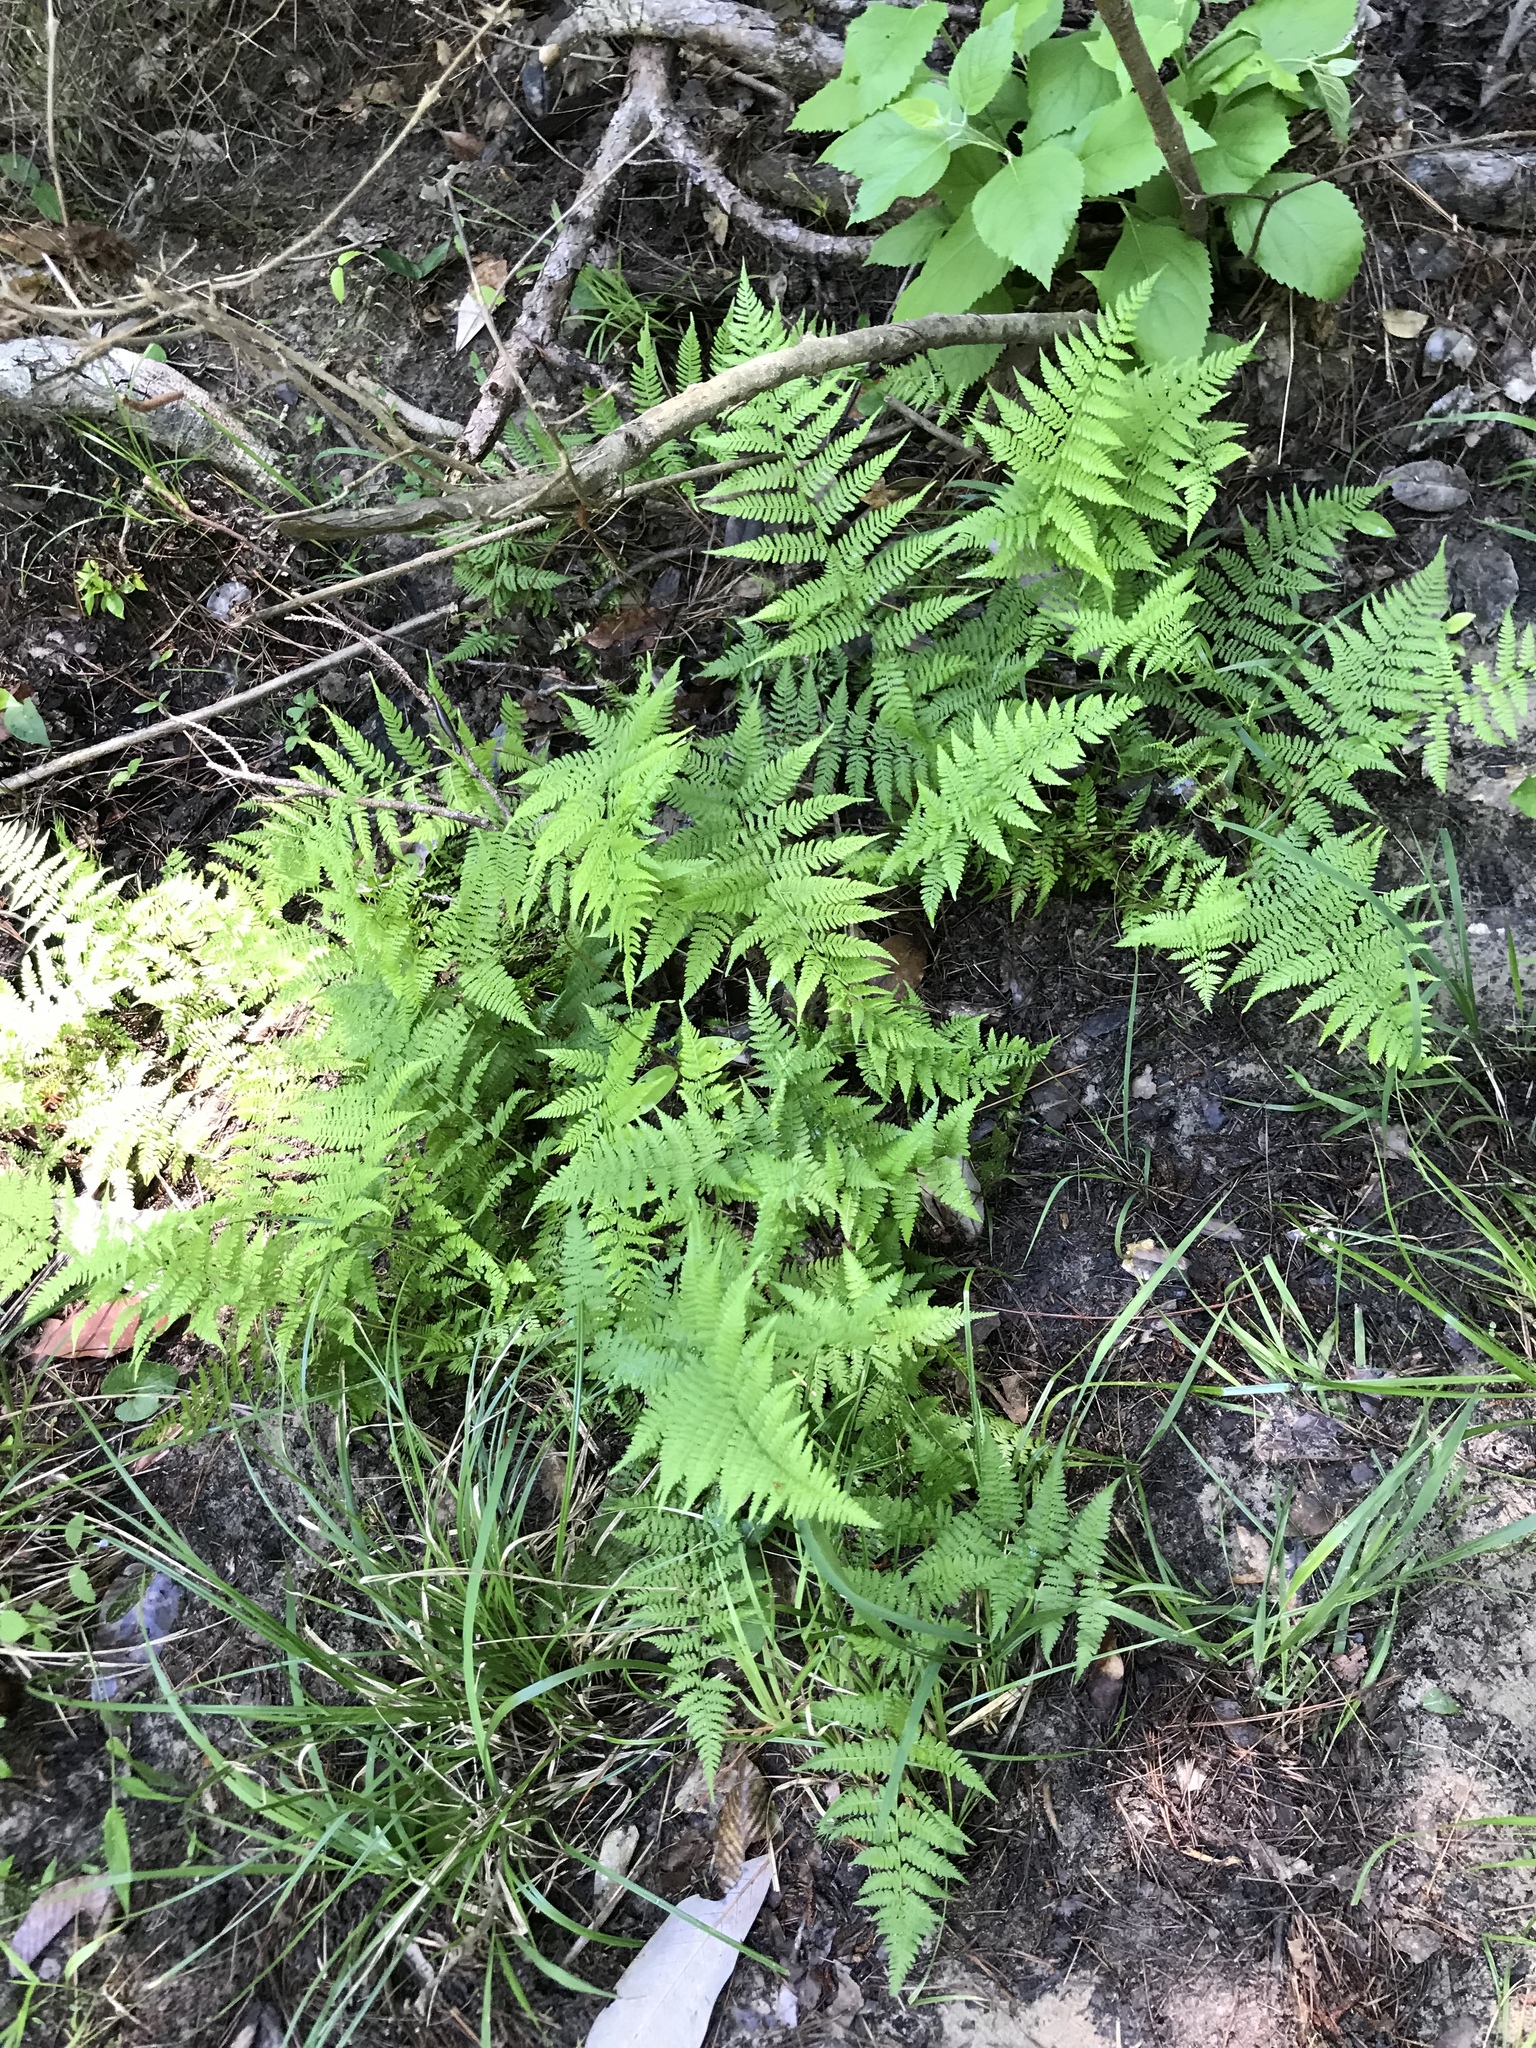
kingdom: Plantae
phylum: Tracheophyta
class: Polypodiopsida
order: Polypodiales
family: Athyriaceae
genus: Athyrium
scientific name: Athyrium asplenioides
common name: Southern lady fern
